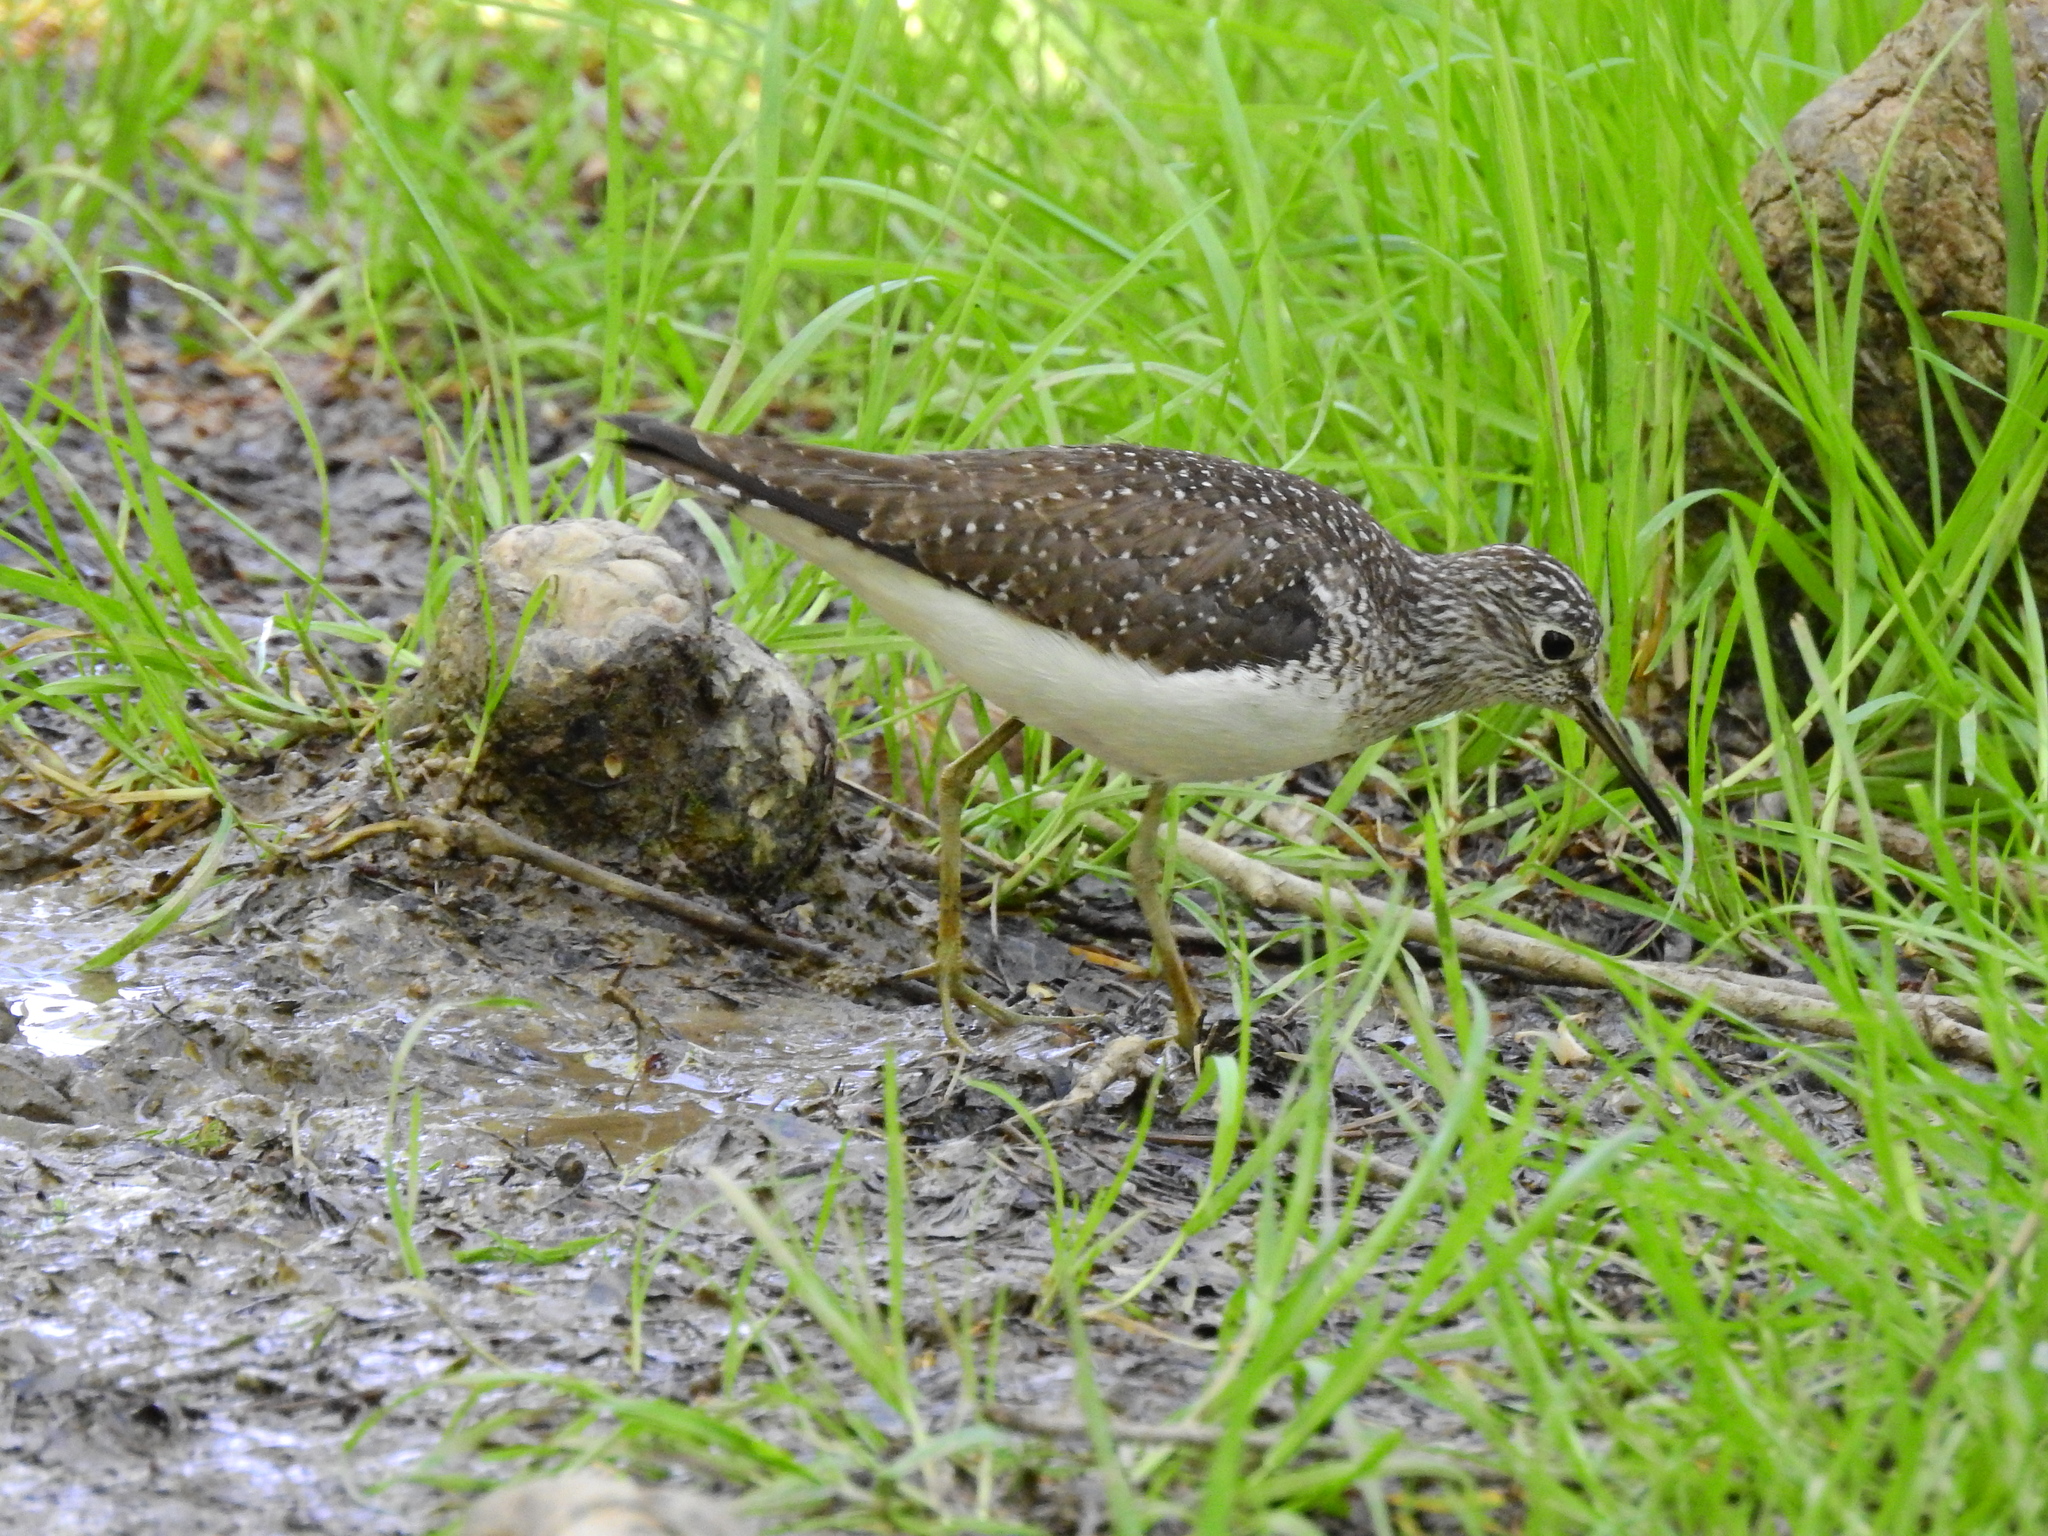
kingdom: Animalia
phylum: Chordata
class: Aves
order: Charadriiformes
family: Scolopacidae
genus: Tringa
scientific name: Tringa solitaria
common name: Solitary sandpiper
